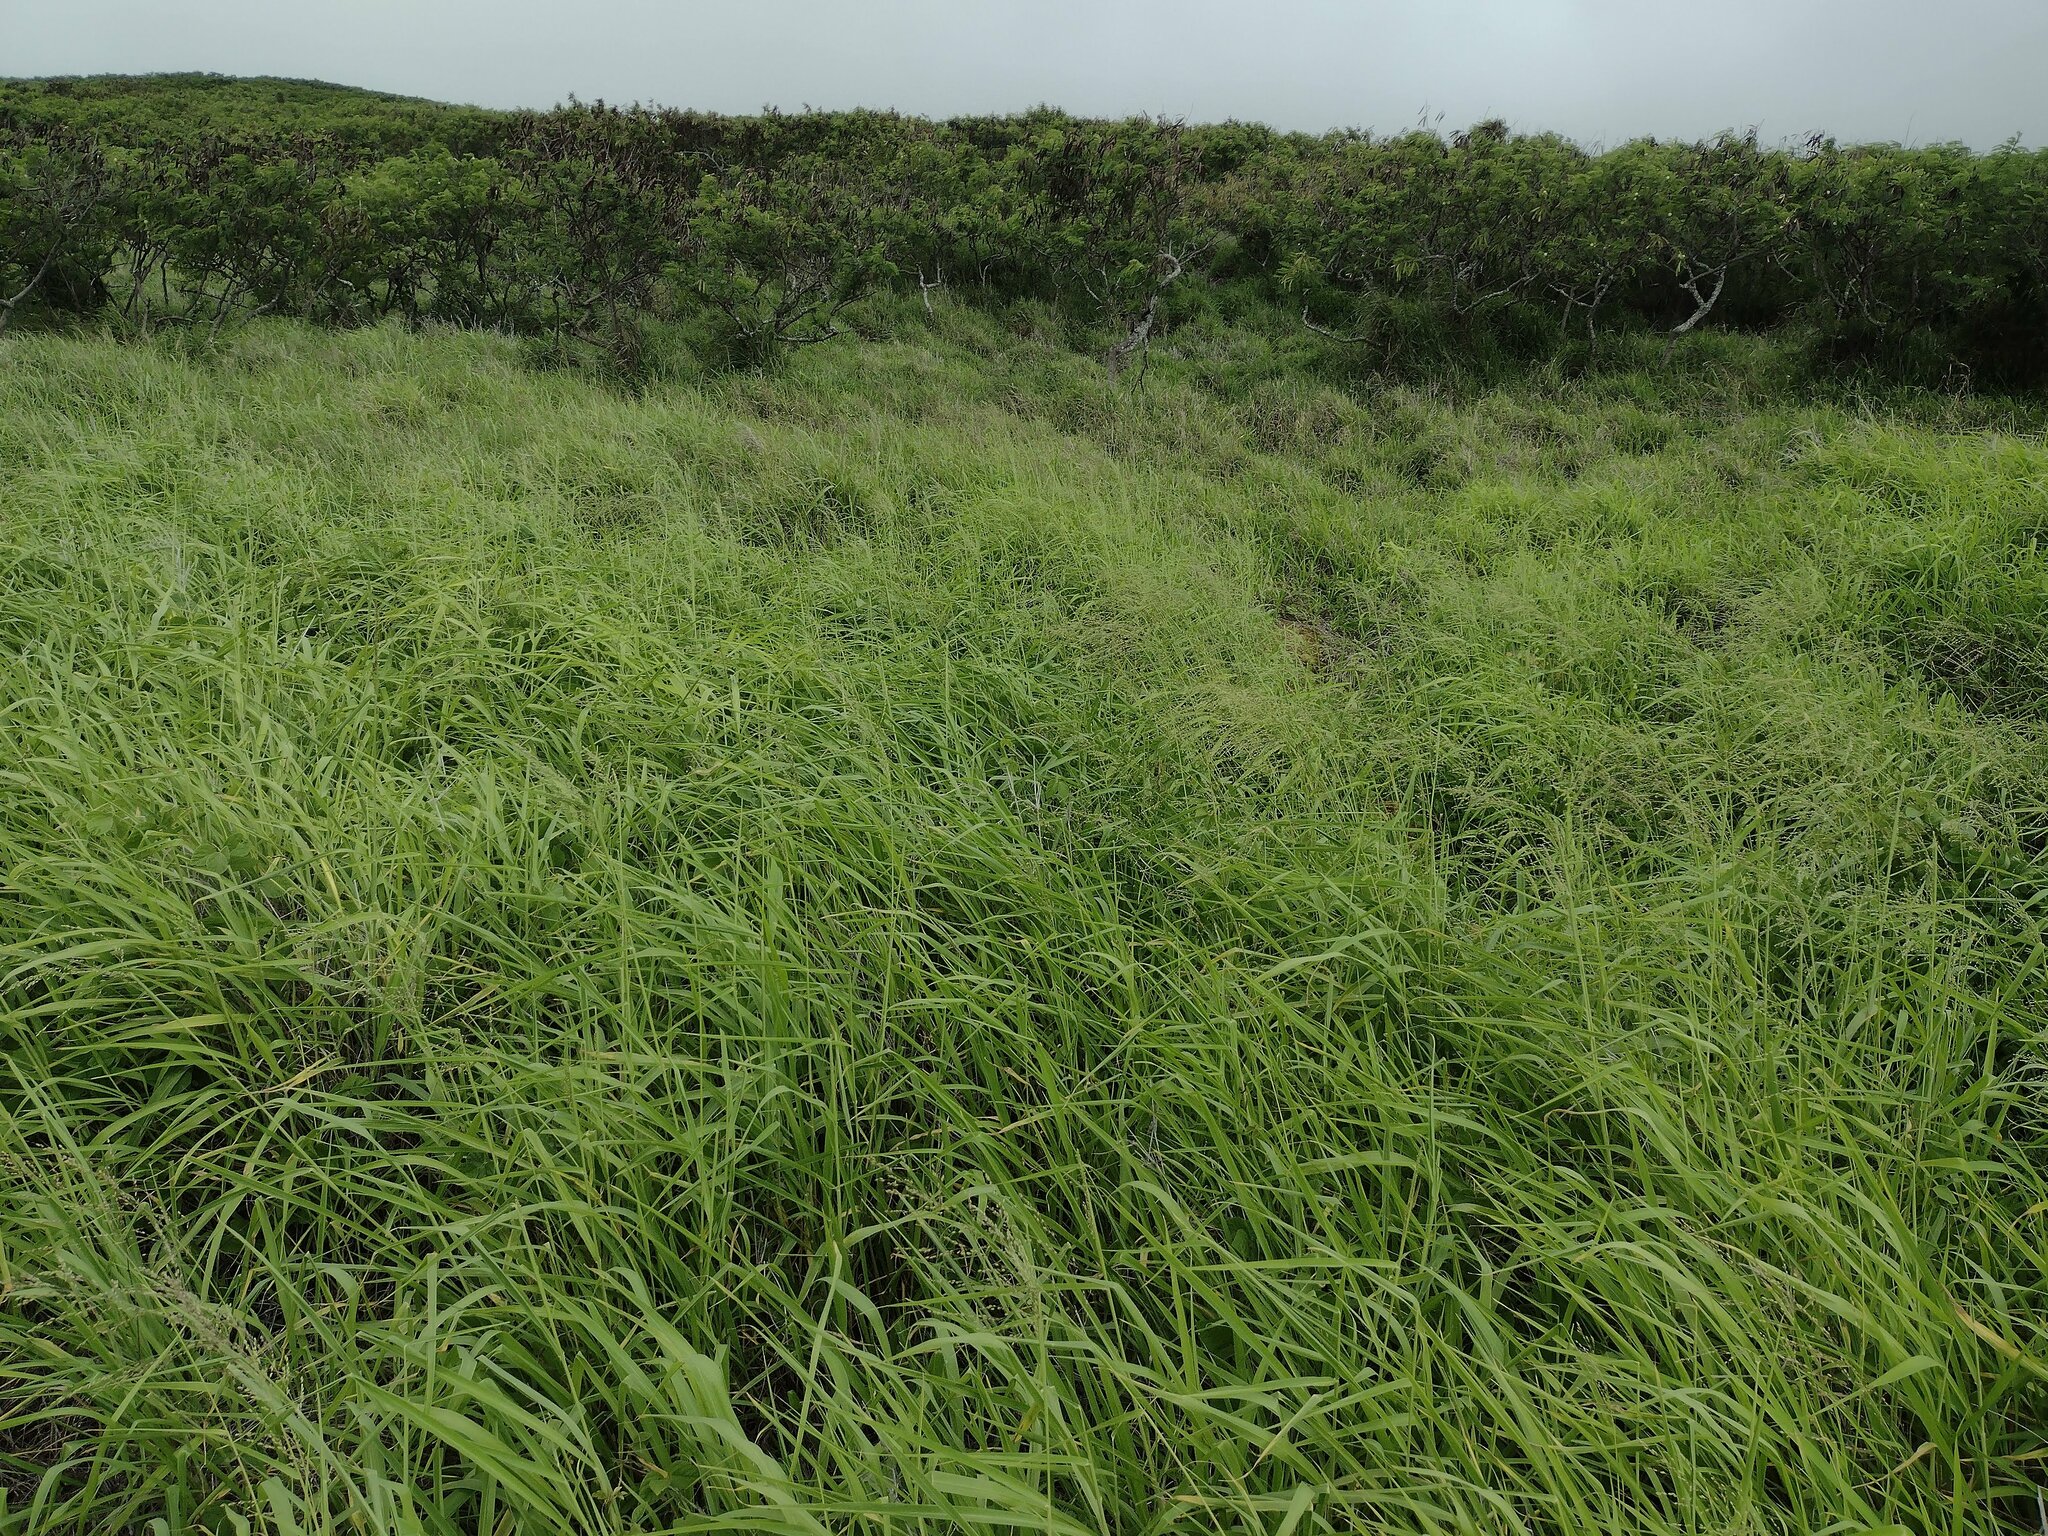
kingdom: Plantae
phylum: Tracheophyta
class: Liliopsida
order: Poales
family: Poaceae
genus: Megathyrsus
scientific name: Megathyrsus maximus
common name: Guineagrass
